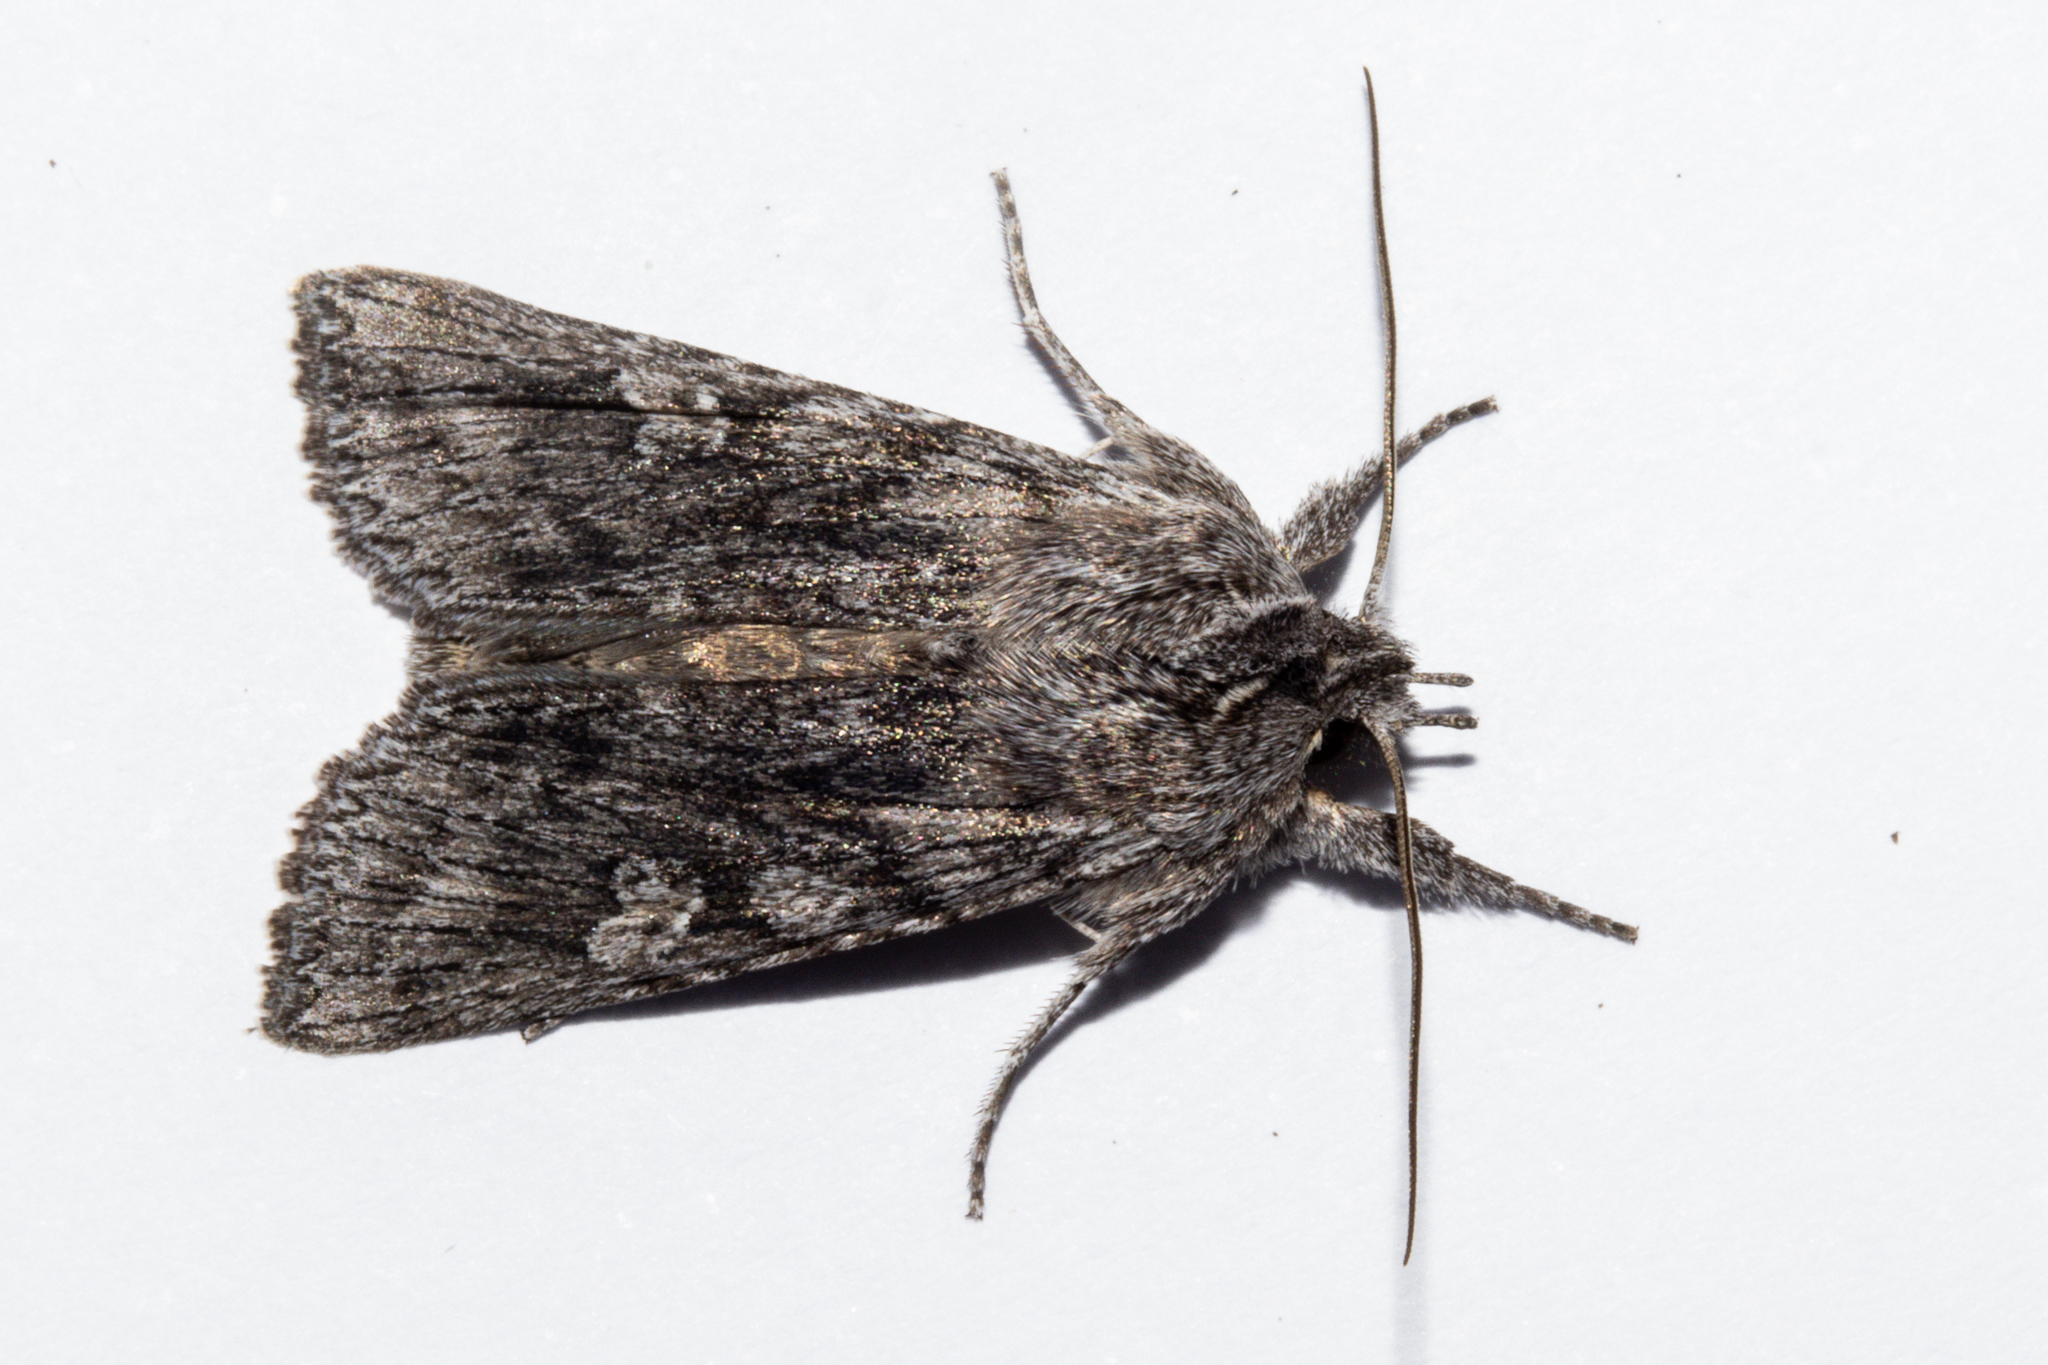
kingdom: Animalia
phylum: Arthropoda
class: Insecta
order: Lepidoptera
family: Noctuidae
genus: Physetica
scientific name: Physetica phricias
